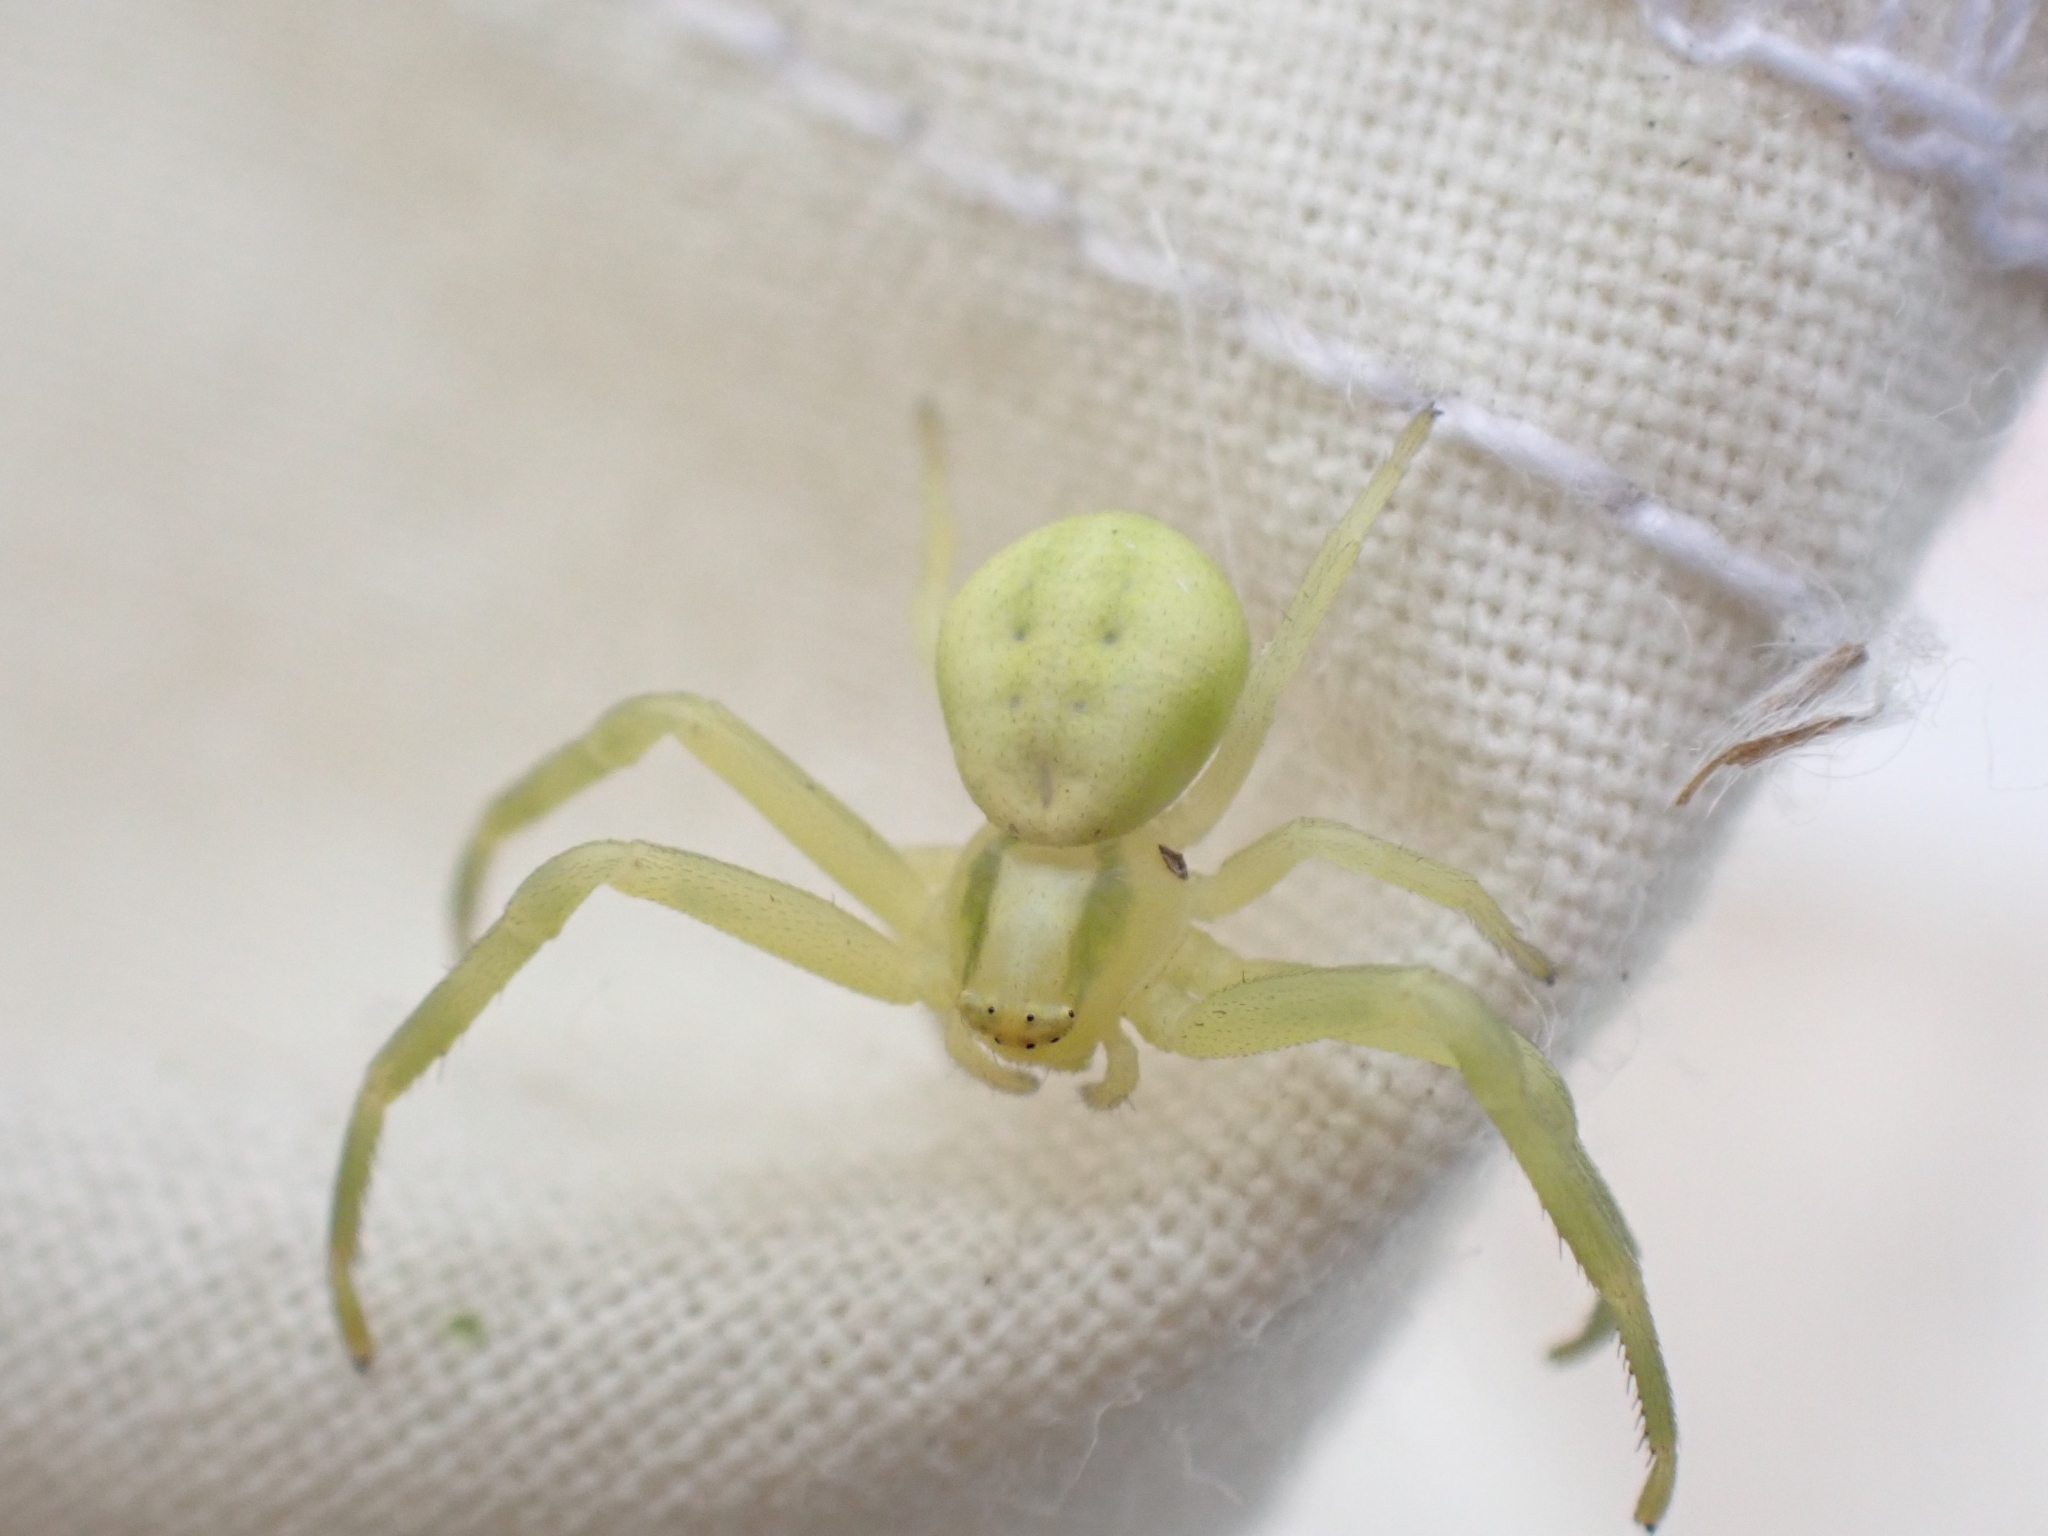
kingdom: Animalia
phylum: Arthropoda
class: Arachnida
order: Araneae
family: Thomisidae
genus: Misumena
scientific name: Misumena vatia
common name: Goldenrod crab spider
